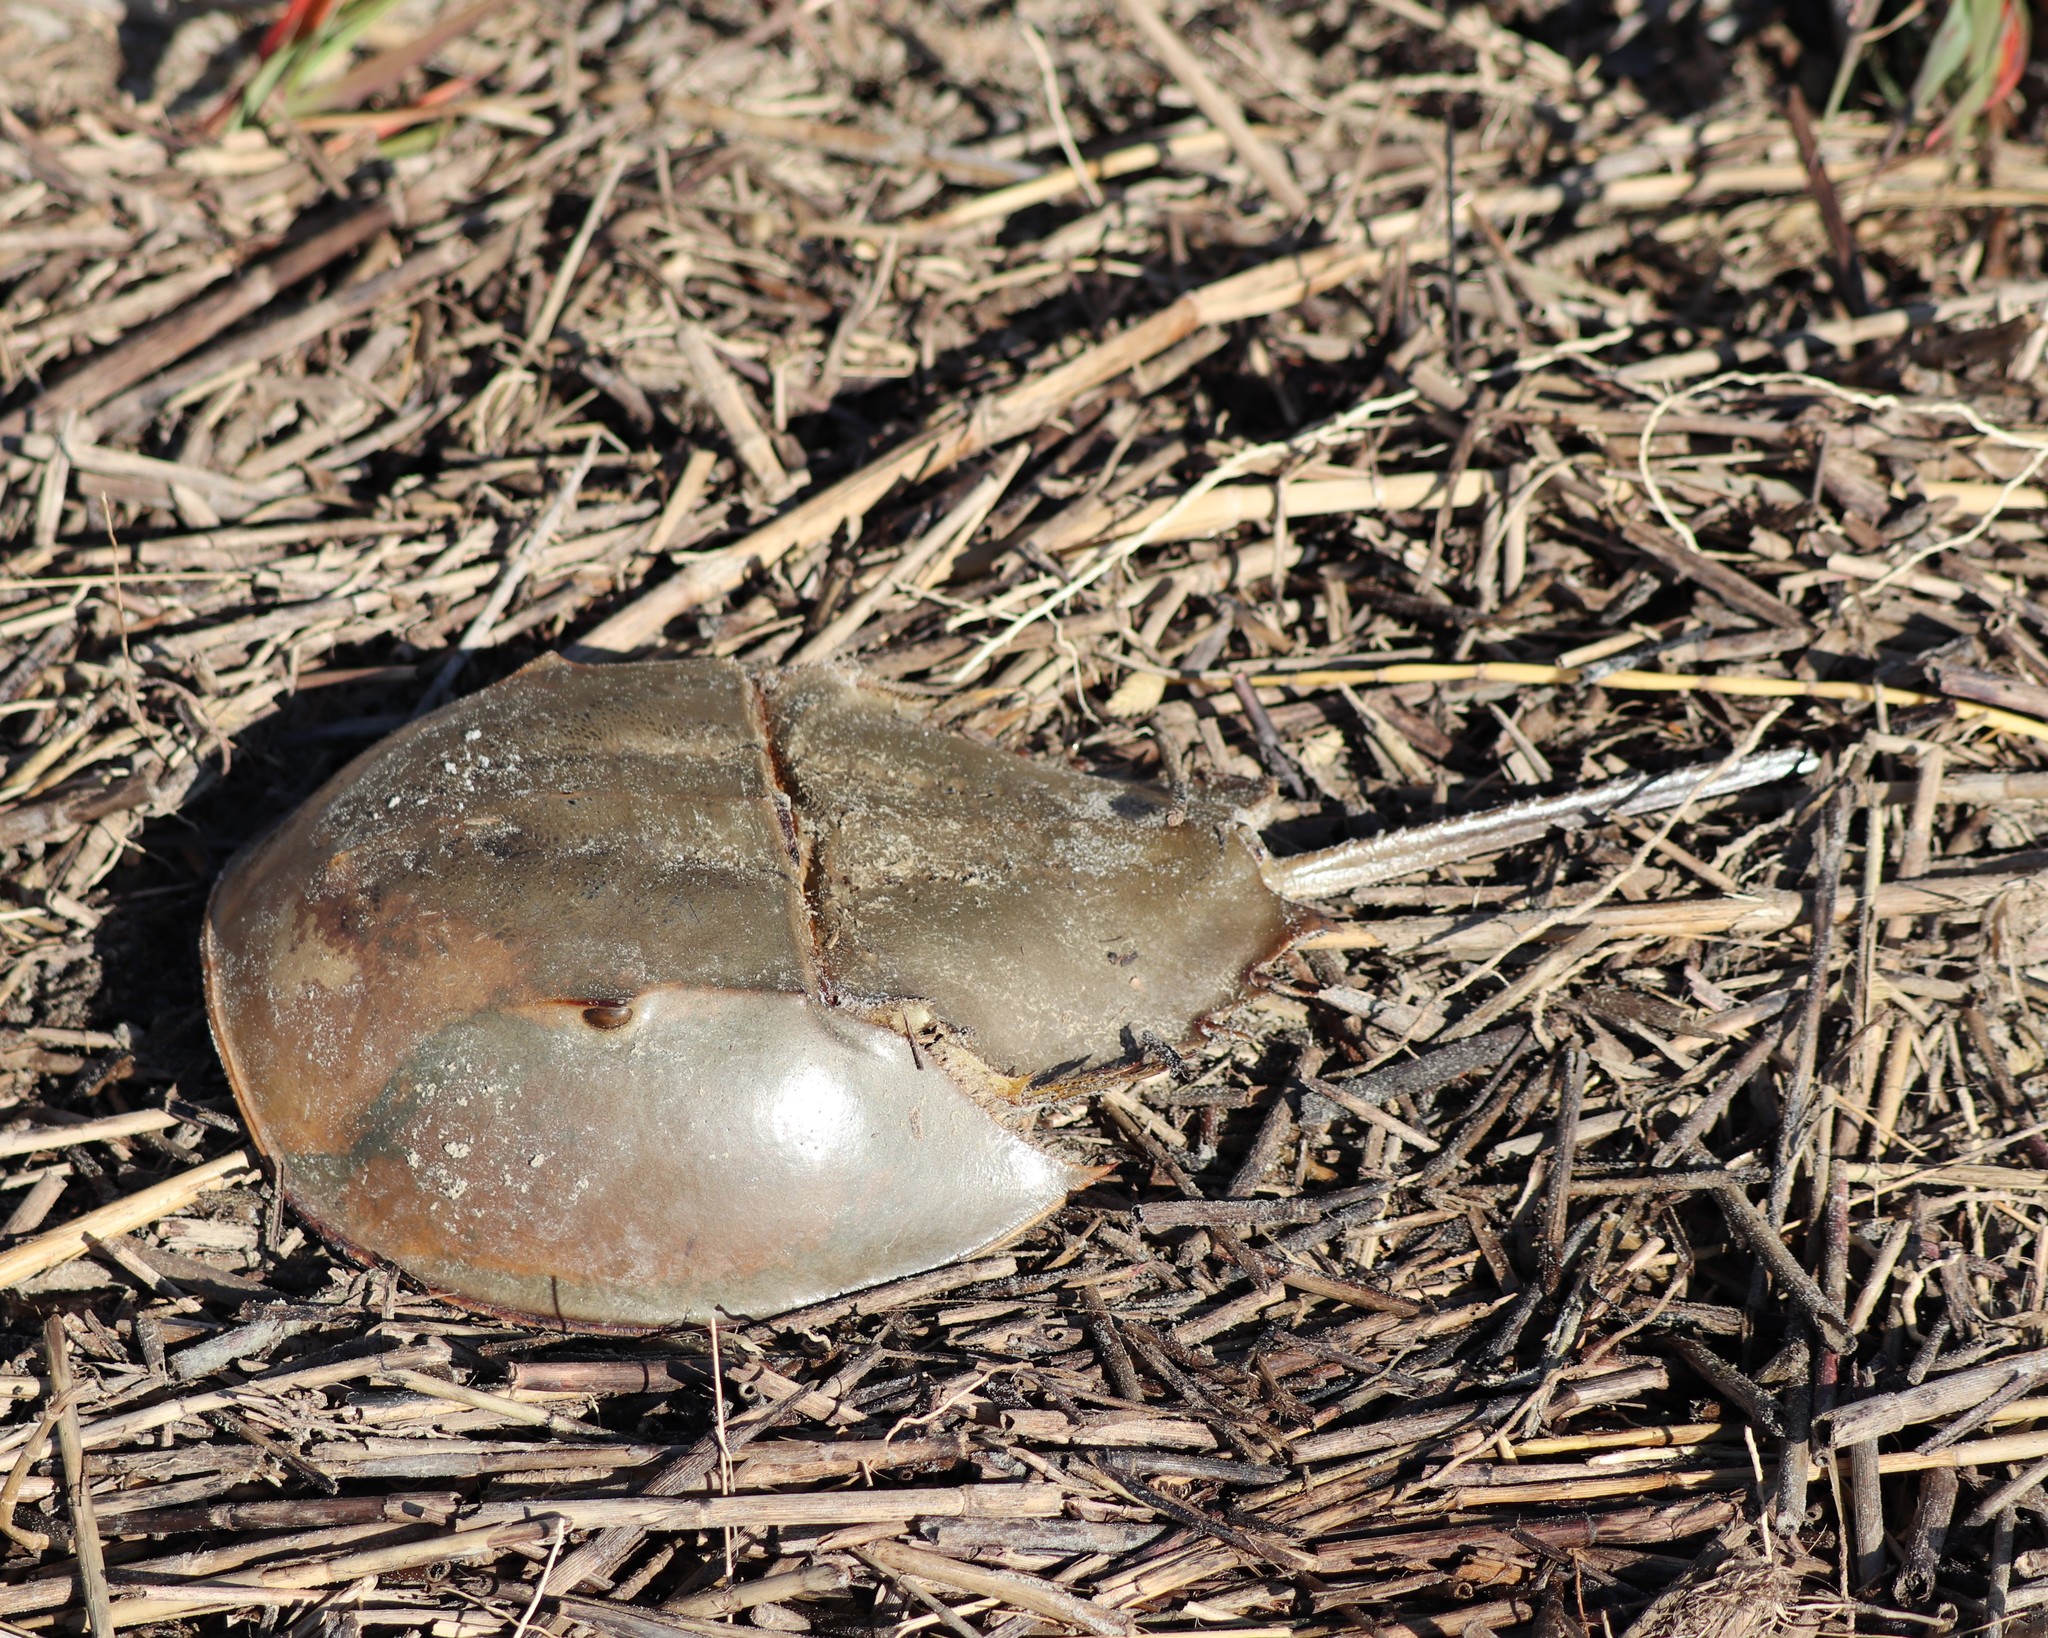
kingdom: Animalia
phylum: Arthropoda
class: Merostomata
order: Xiphosurida
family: Limulidae
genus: Limulus
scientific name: Limulus polyphemus
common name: Horseshoe crab
